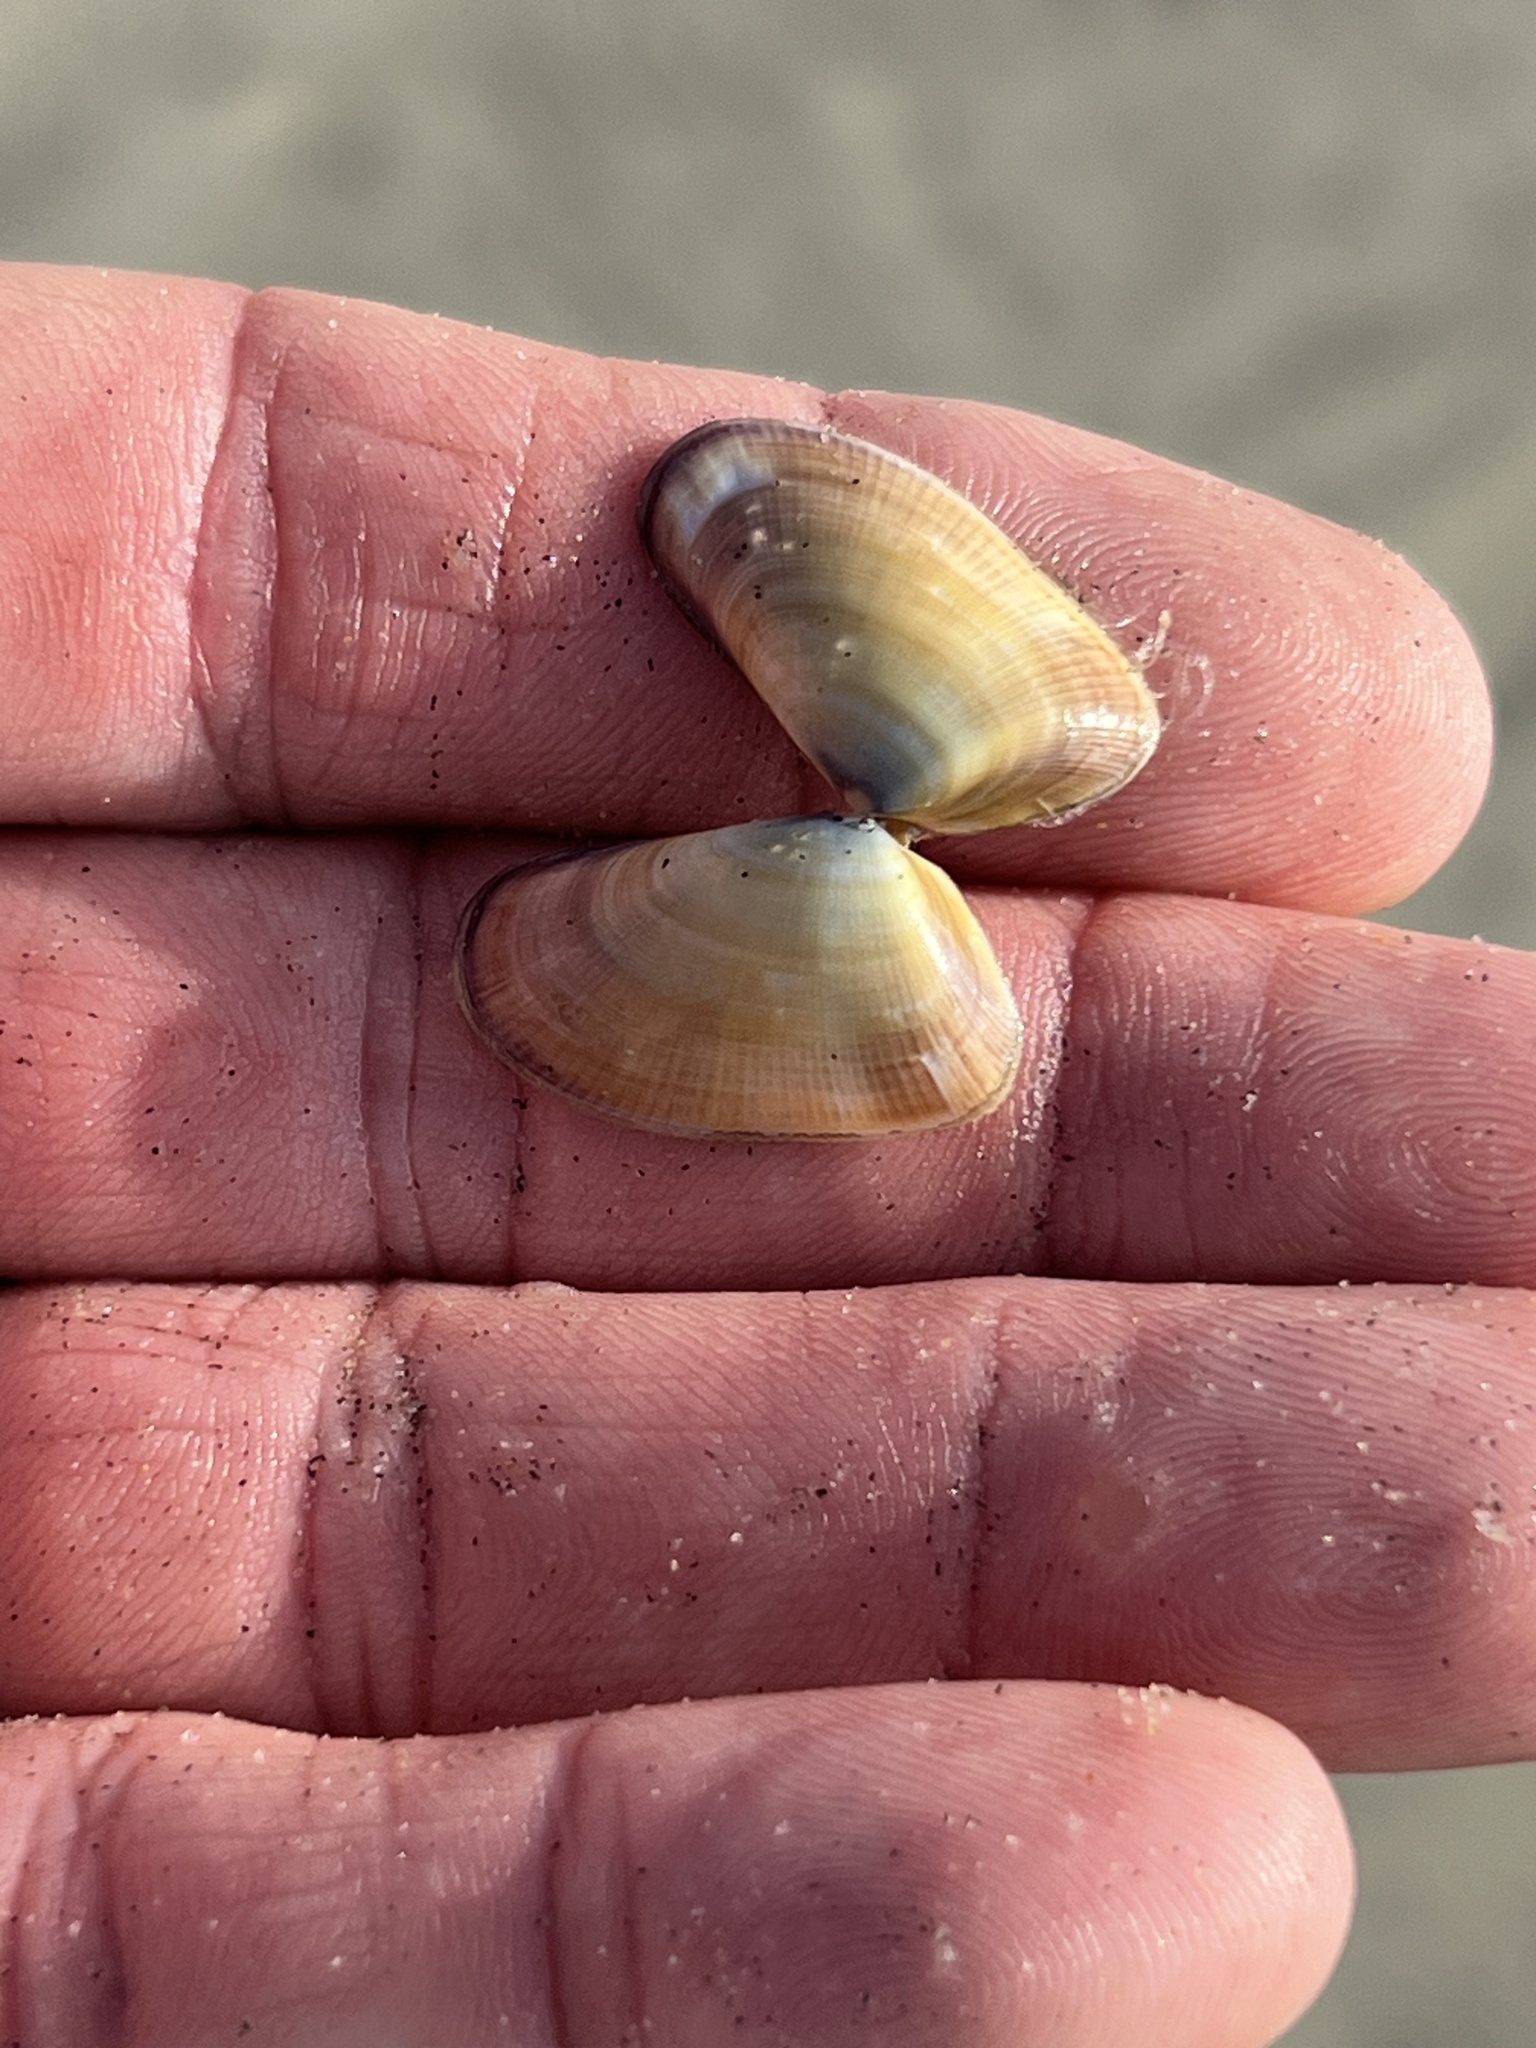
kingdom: Animalia
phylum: Mollusca
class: Bivalvia
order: Cardiida
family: Donacidae
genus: Donax
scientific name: Donax gouldii
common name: Gould beanclam
